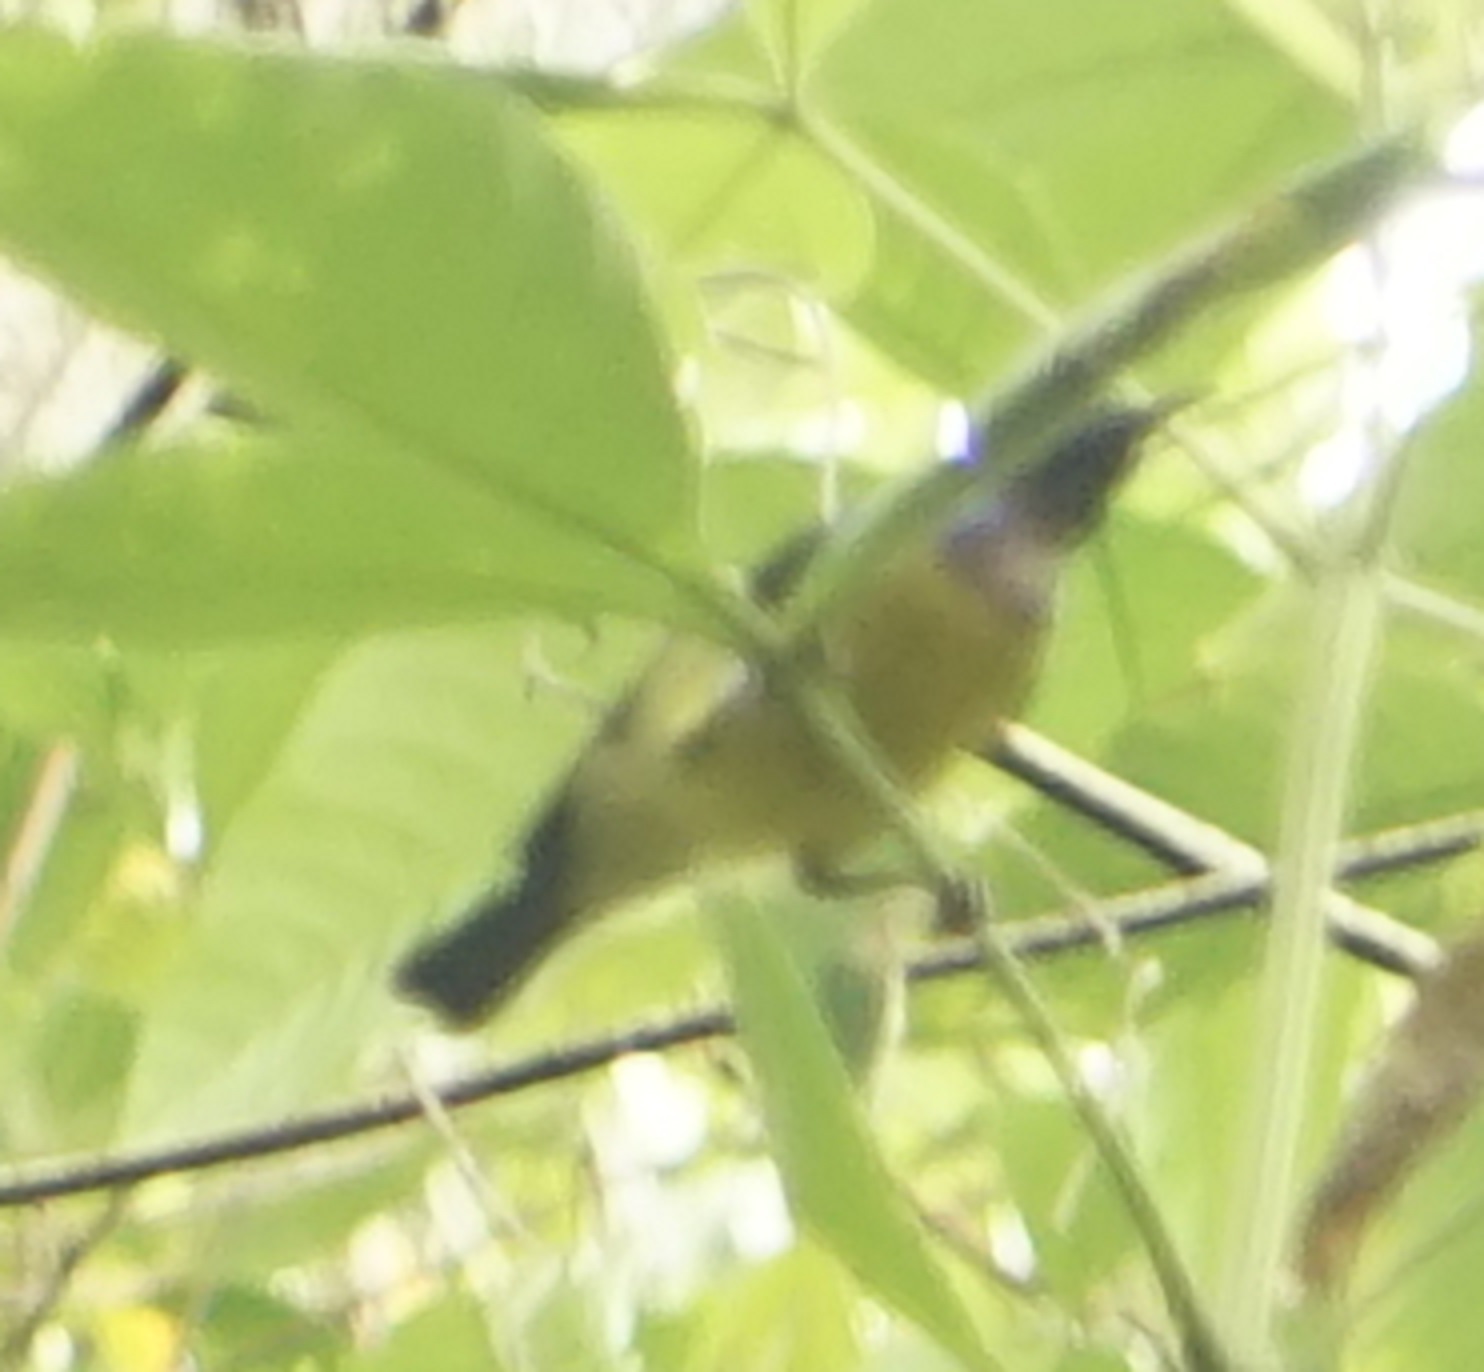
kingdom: Animalia
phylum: Chordata
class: Aves
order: Passeriformes
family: Nectariniidae
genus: Anthreptes
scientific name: Anthreptes malacensis
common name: Brown-throated sunbird
